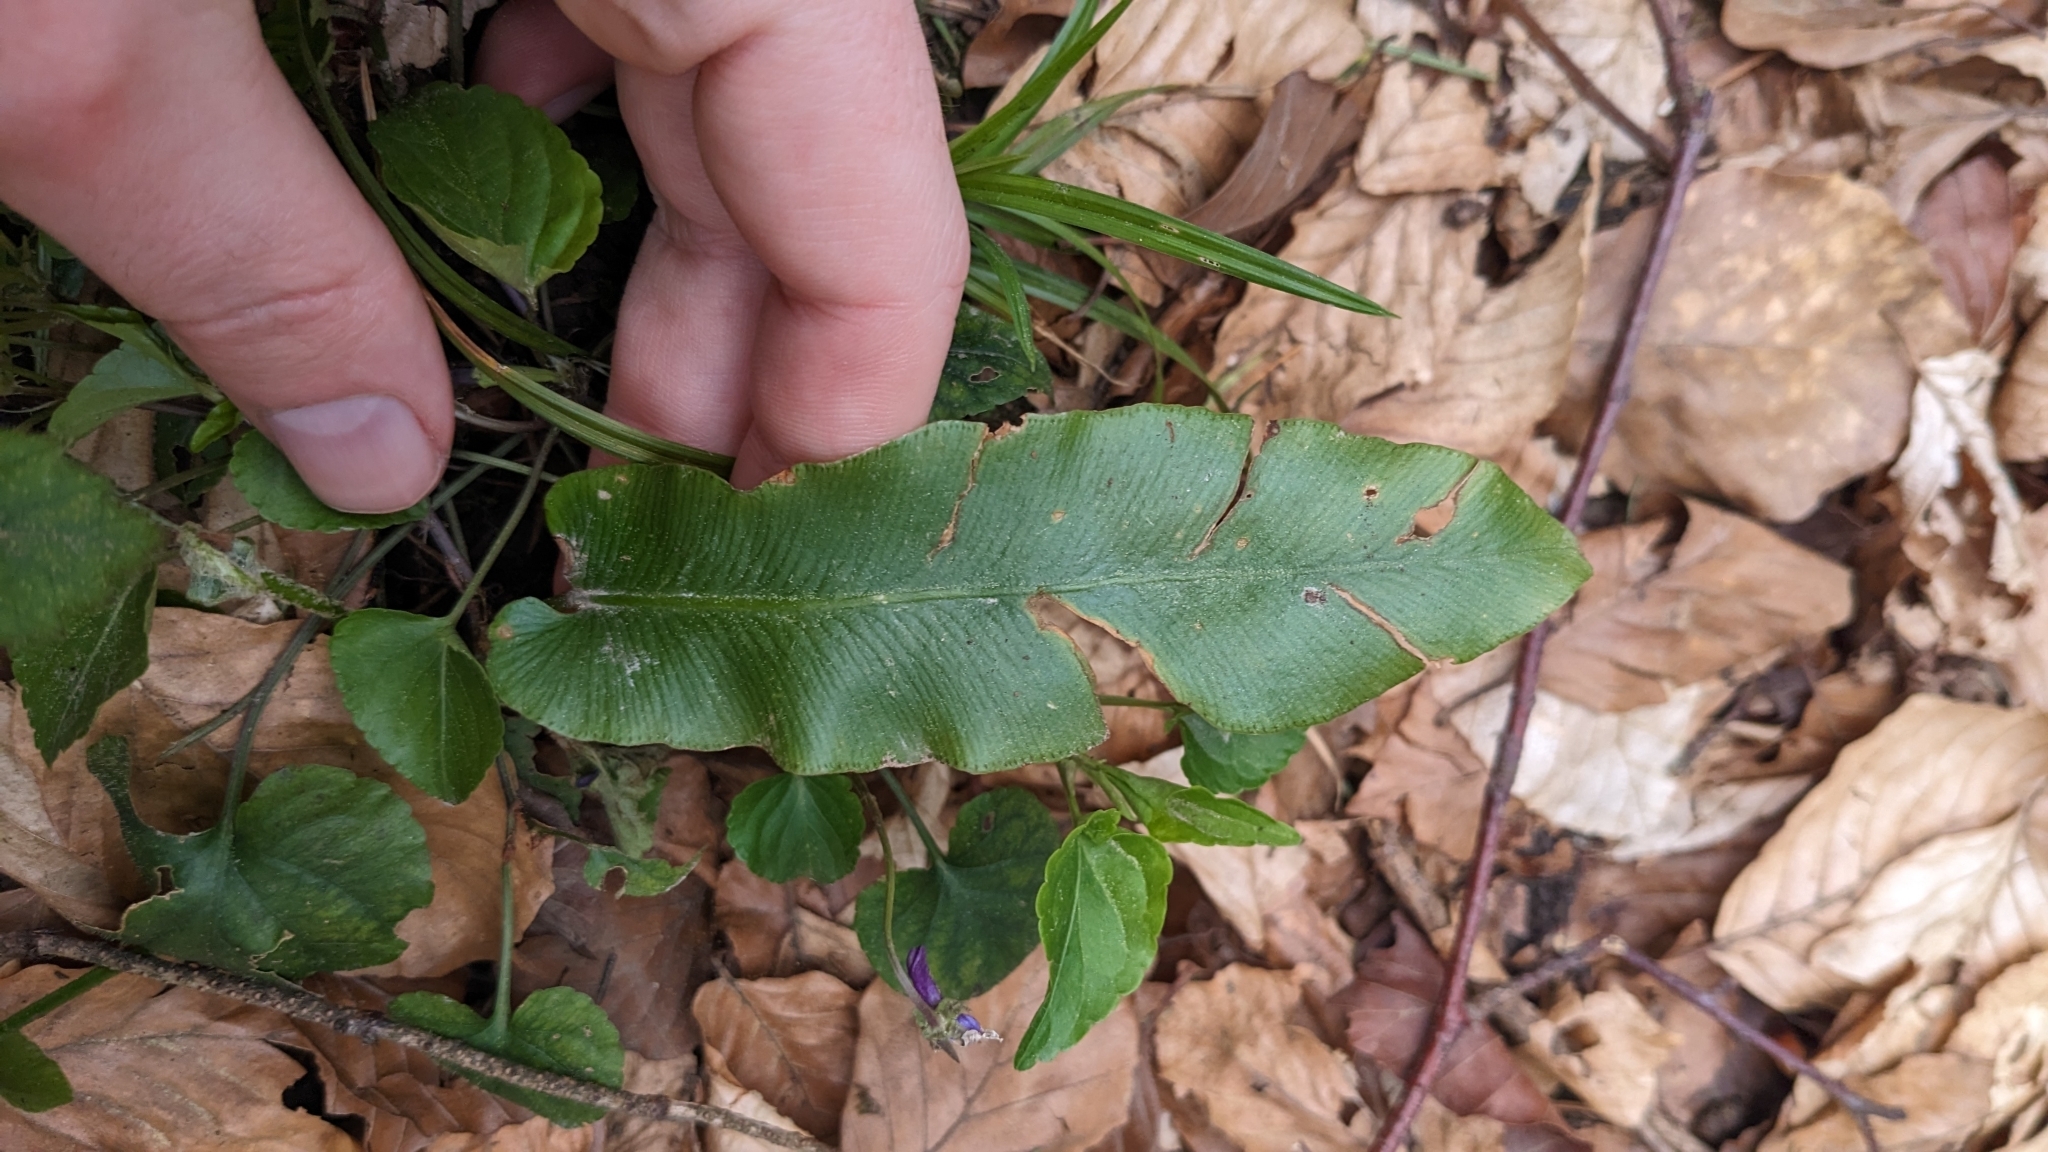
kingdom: Plantae
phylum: Tracheophyta
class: Polypodiopsida
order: Polypodiales
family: Aspleniaceae
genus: Asplenium
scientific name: Asplenium scolopendrium
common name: Hart's-tongue fern
